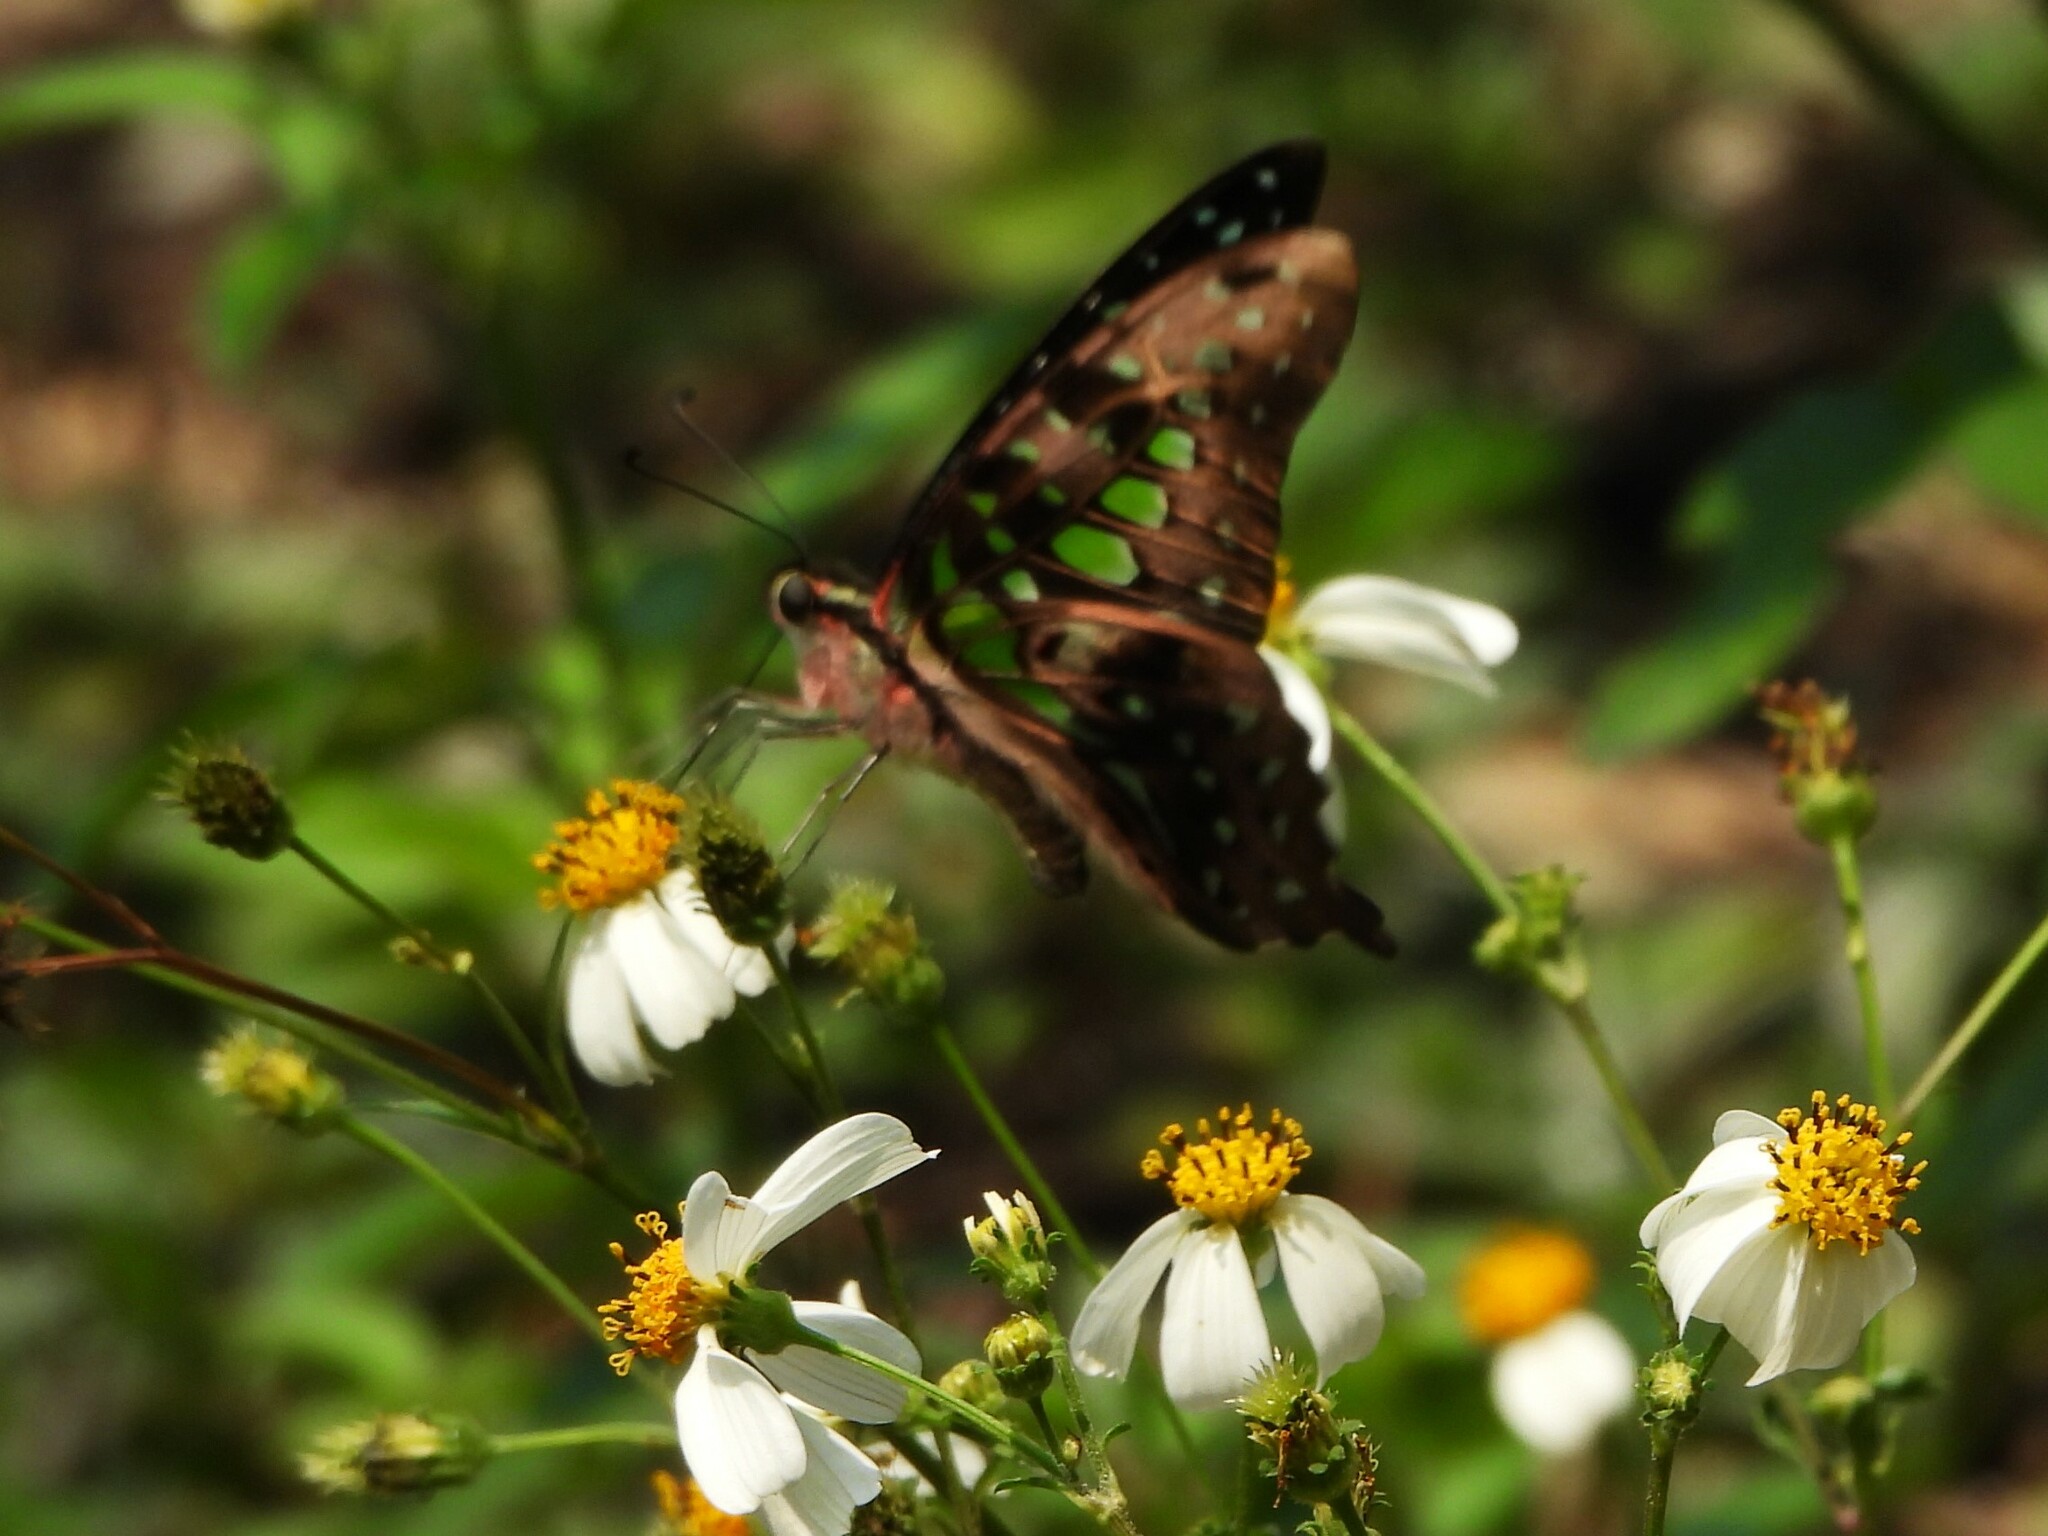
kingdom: Animalia
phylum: Arthropoda
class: Insecta
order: Lepidoptera
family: Papilionidae
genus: Graphium
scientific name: Graphium agamemnon
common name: Tailed jay
